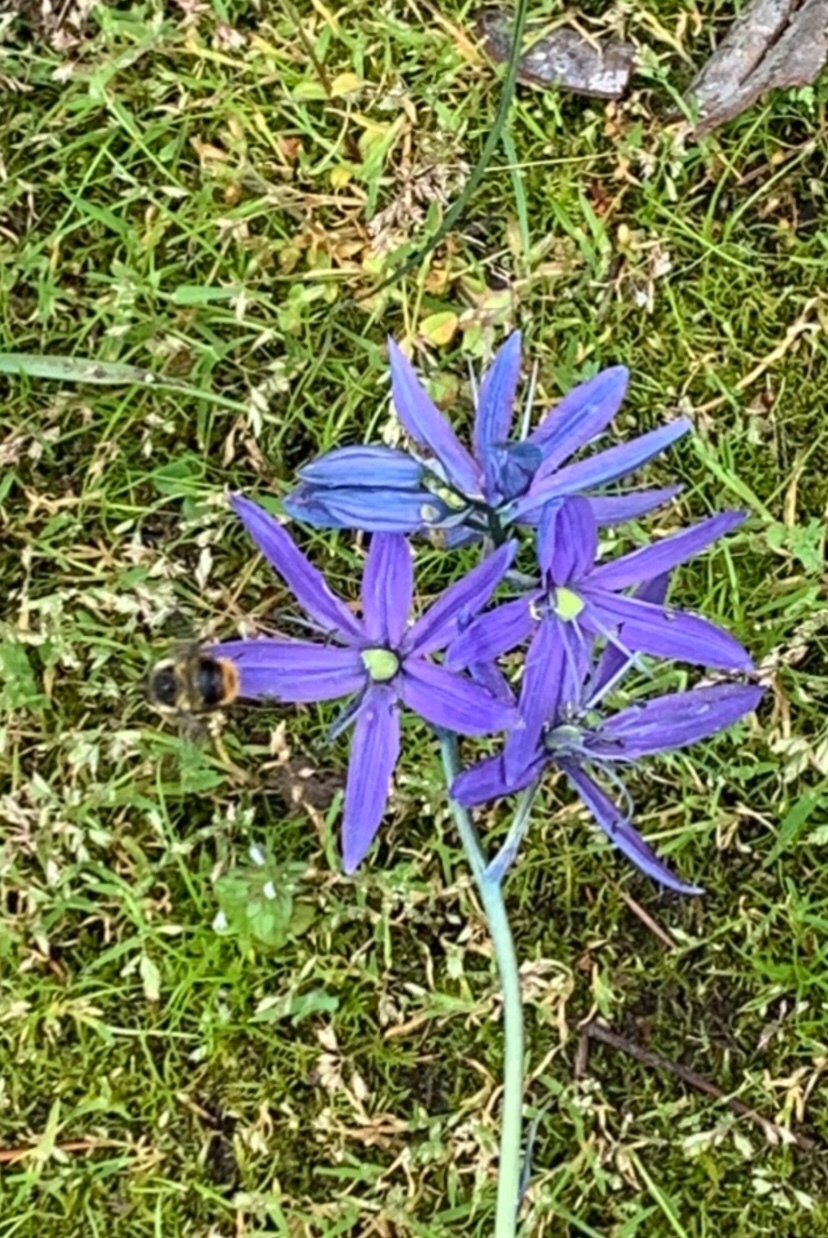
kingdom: Animalia
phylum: Arthropoda
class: Insecta
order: Hymenoptera
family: Apidae
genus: Bombus
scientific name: Bombus mixtus
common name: Fuzzy-horned bumble bee
